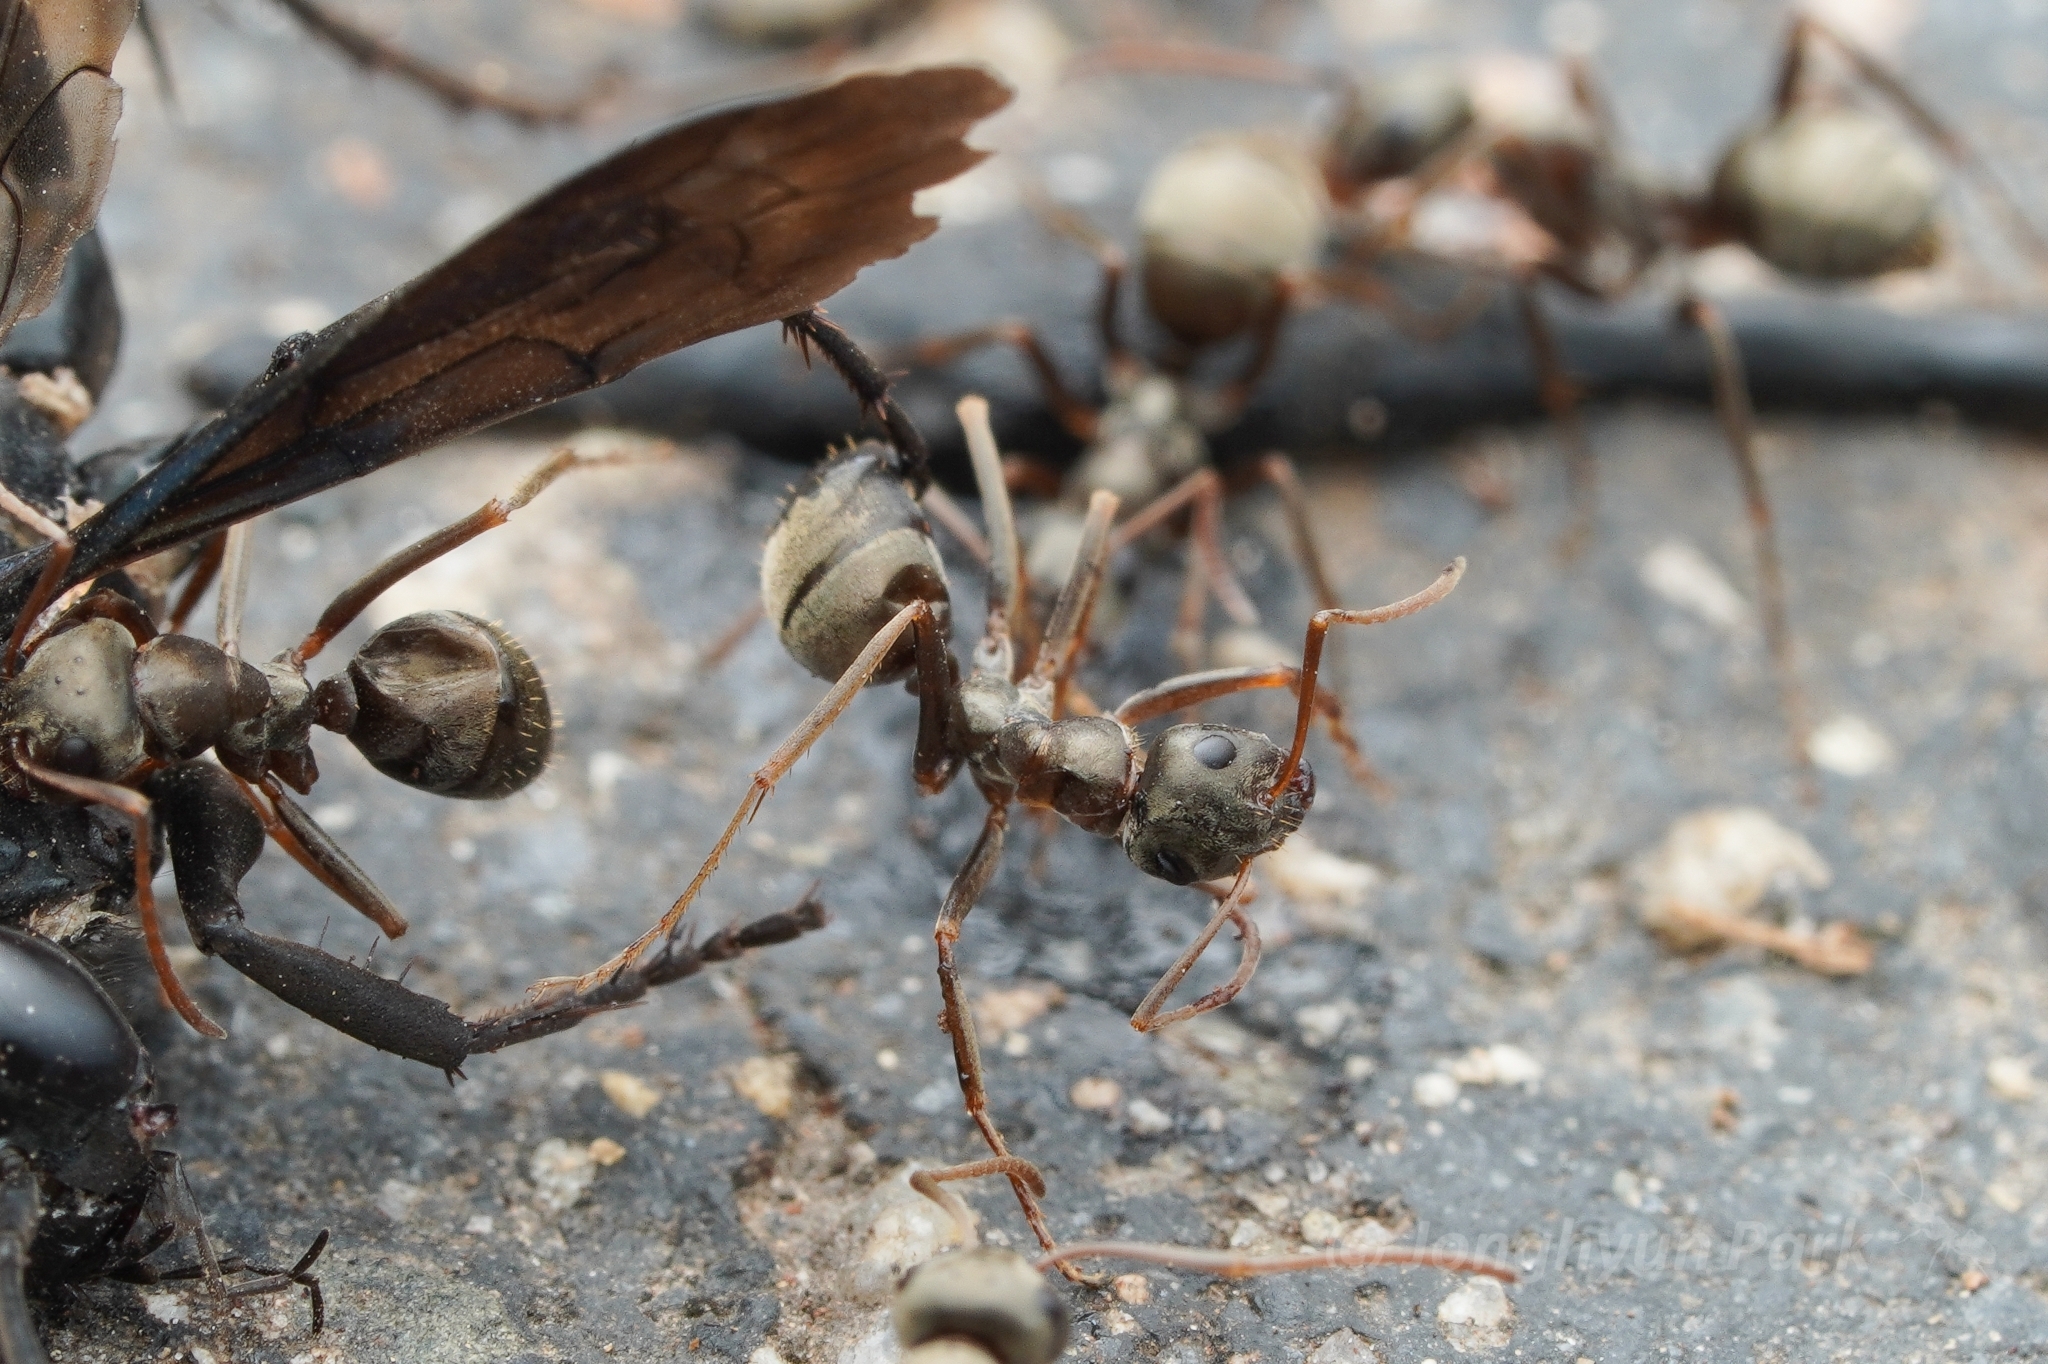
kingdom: Animalia
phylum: Arthropoda
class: Insecta
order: Hymenoptera
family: Formicidae
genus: Formica
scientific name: Formica sibylla
